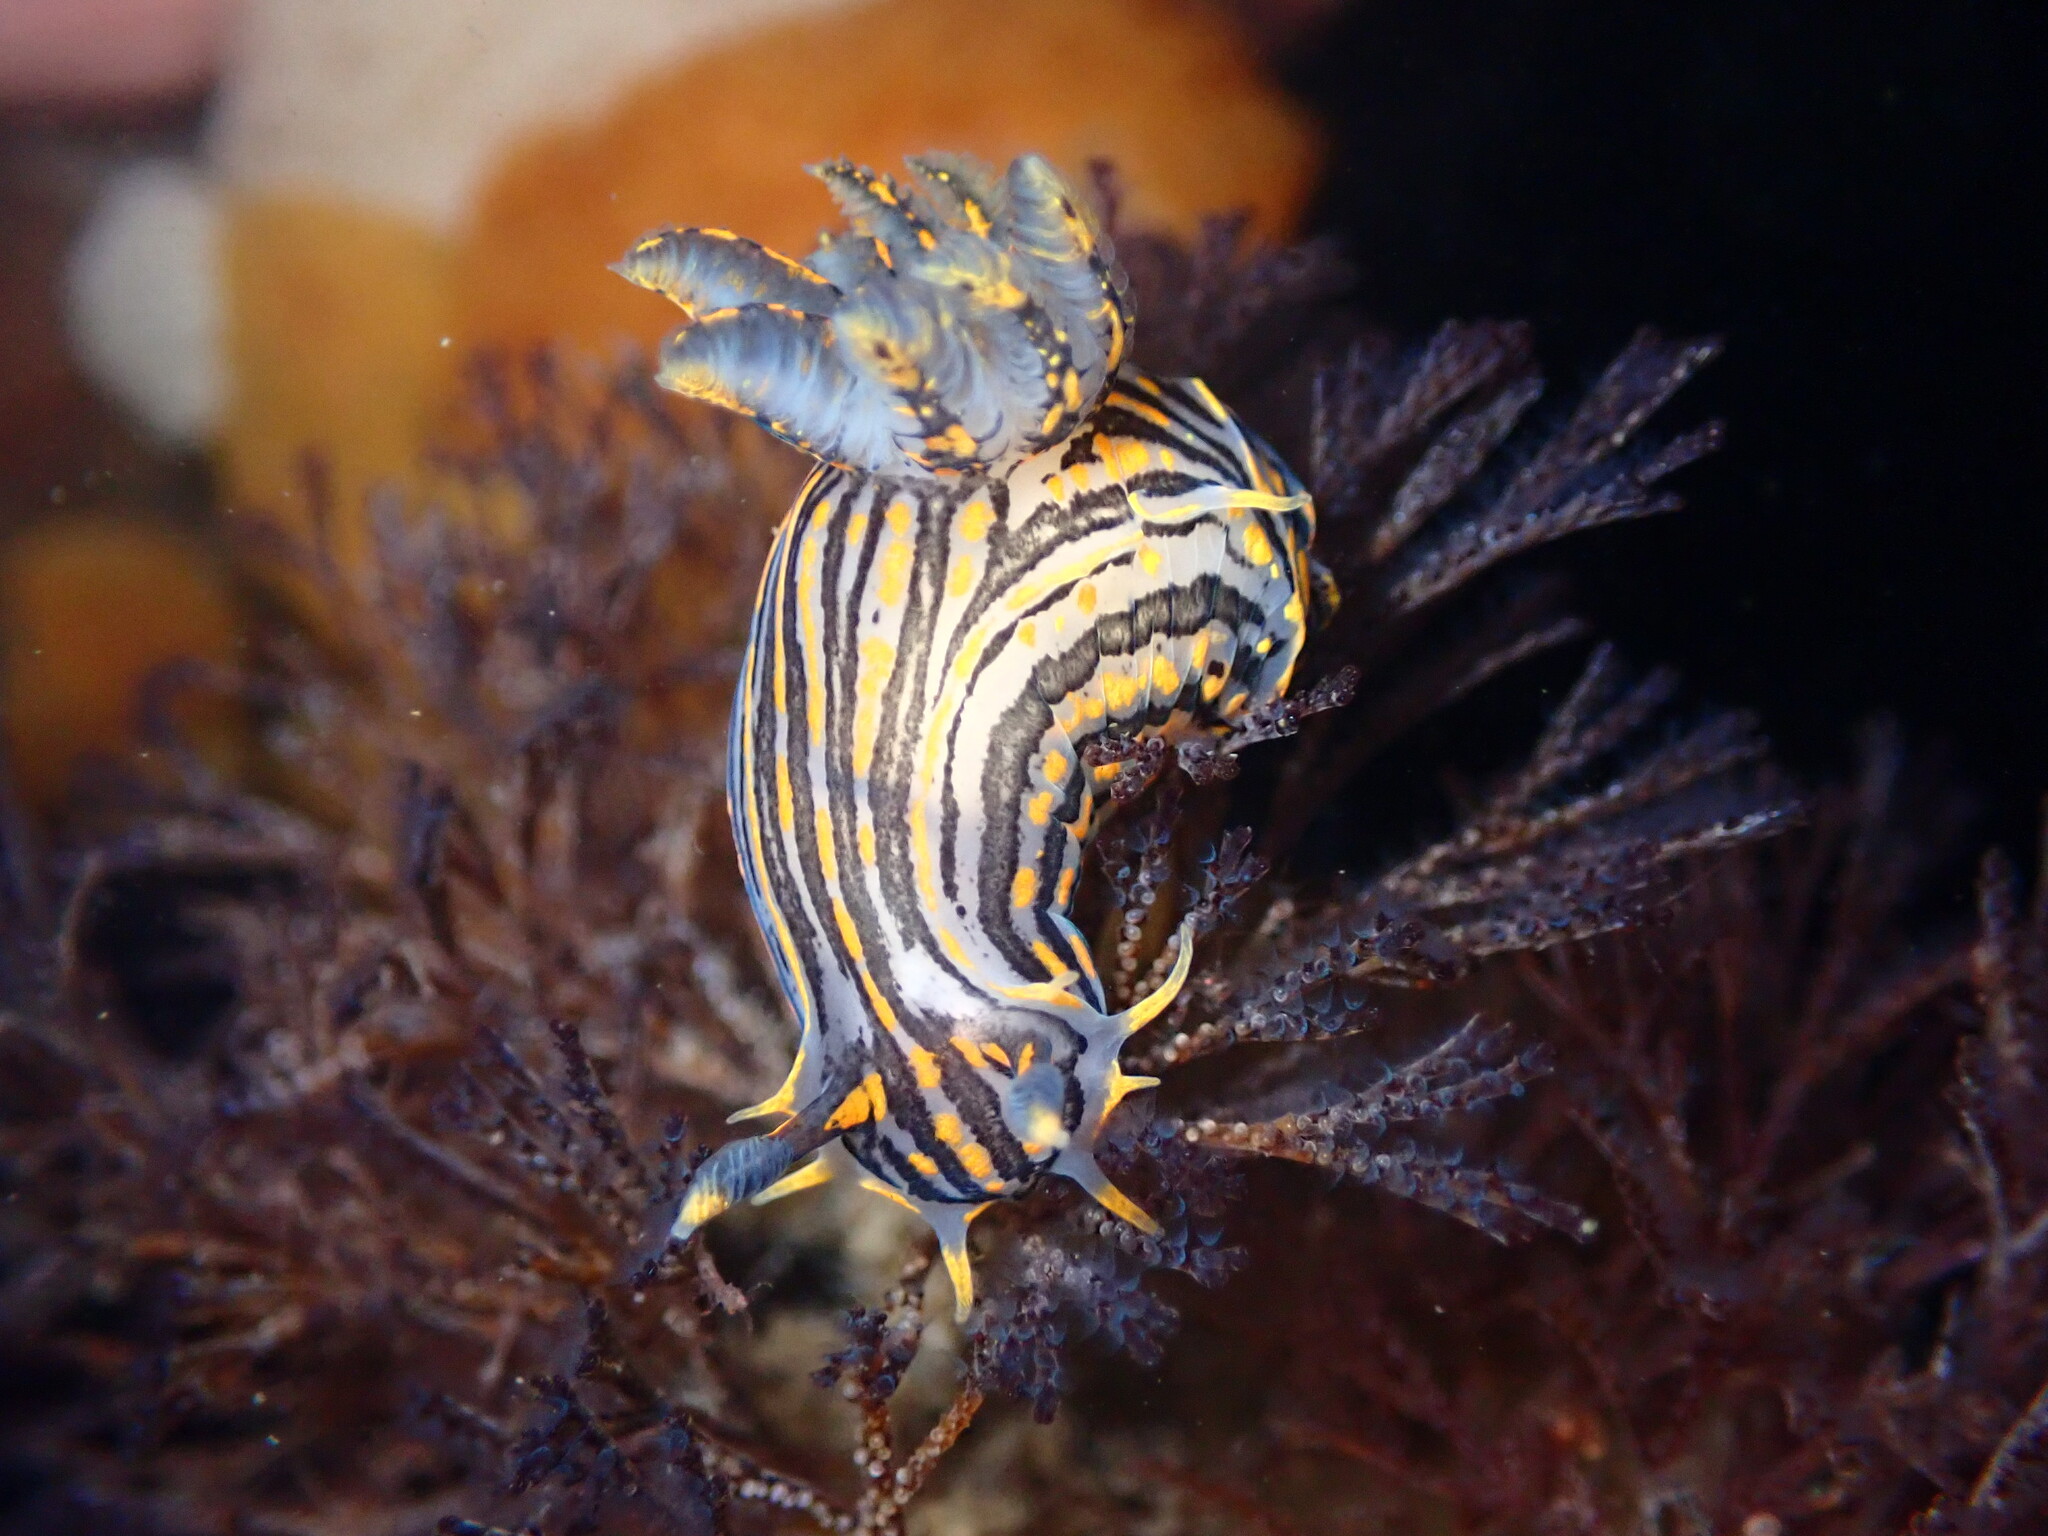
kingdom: Animalia
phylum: Mollusca
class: Gastropoda
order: Nudibranchia
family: Polyceridae
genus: Polycera
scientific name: Polycera atra
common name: Orange-spike polycera
